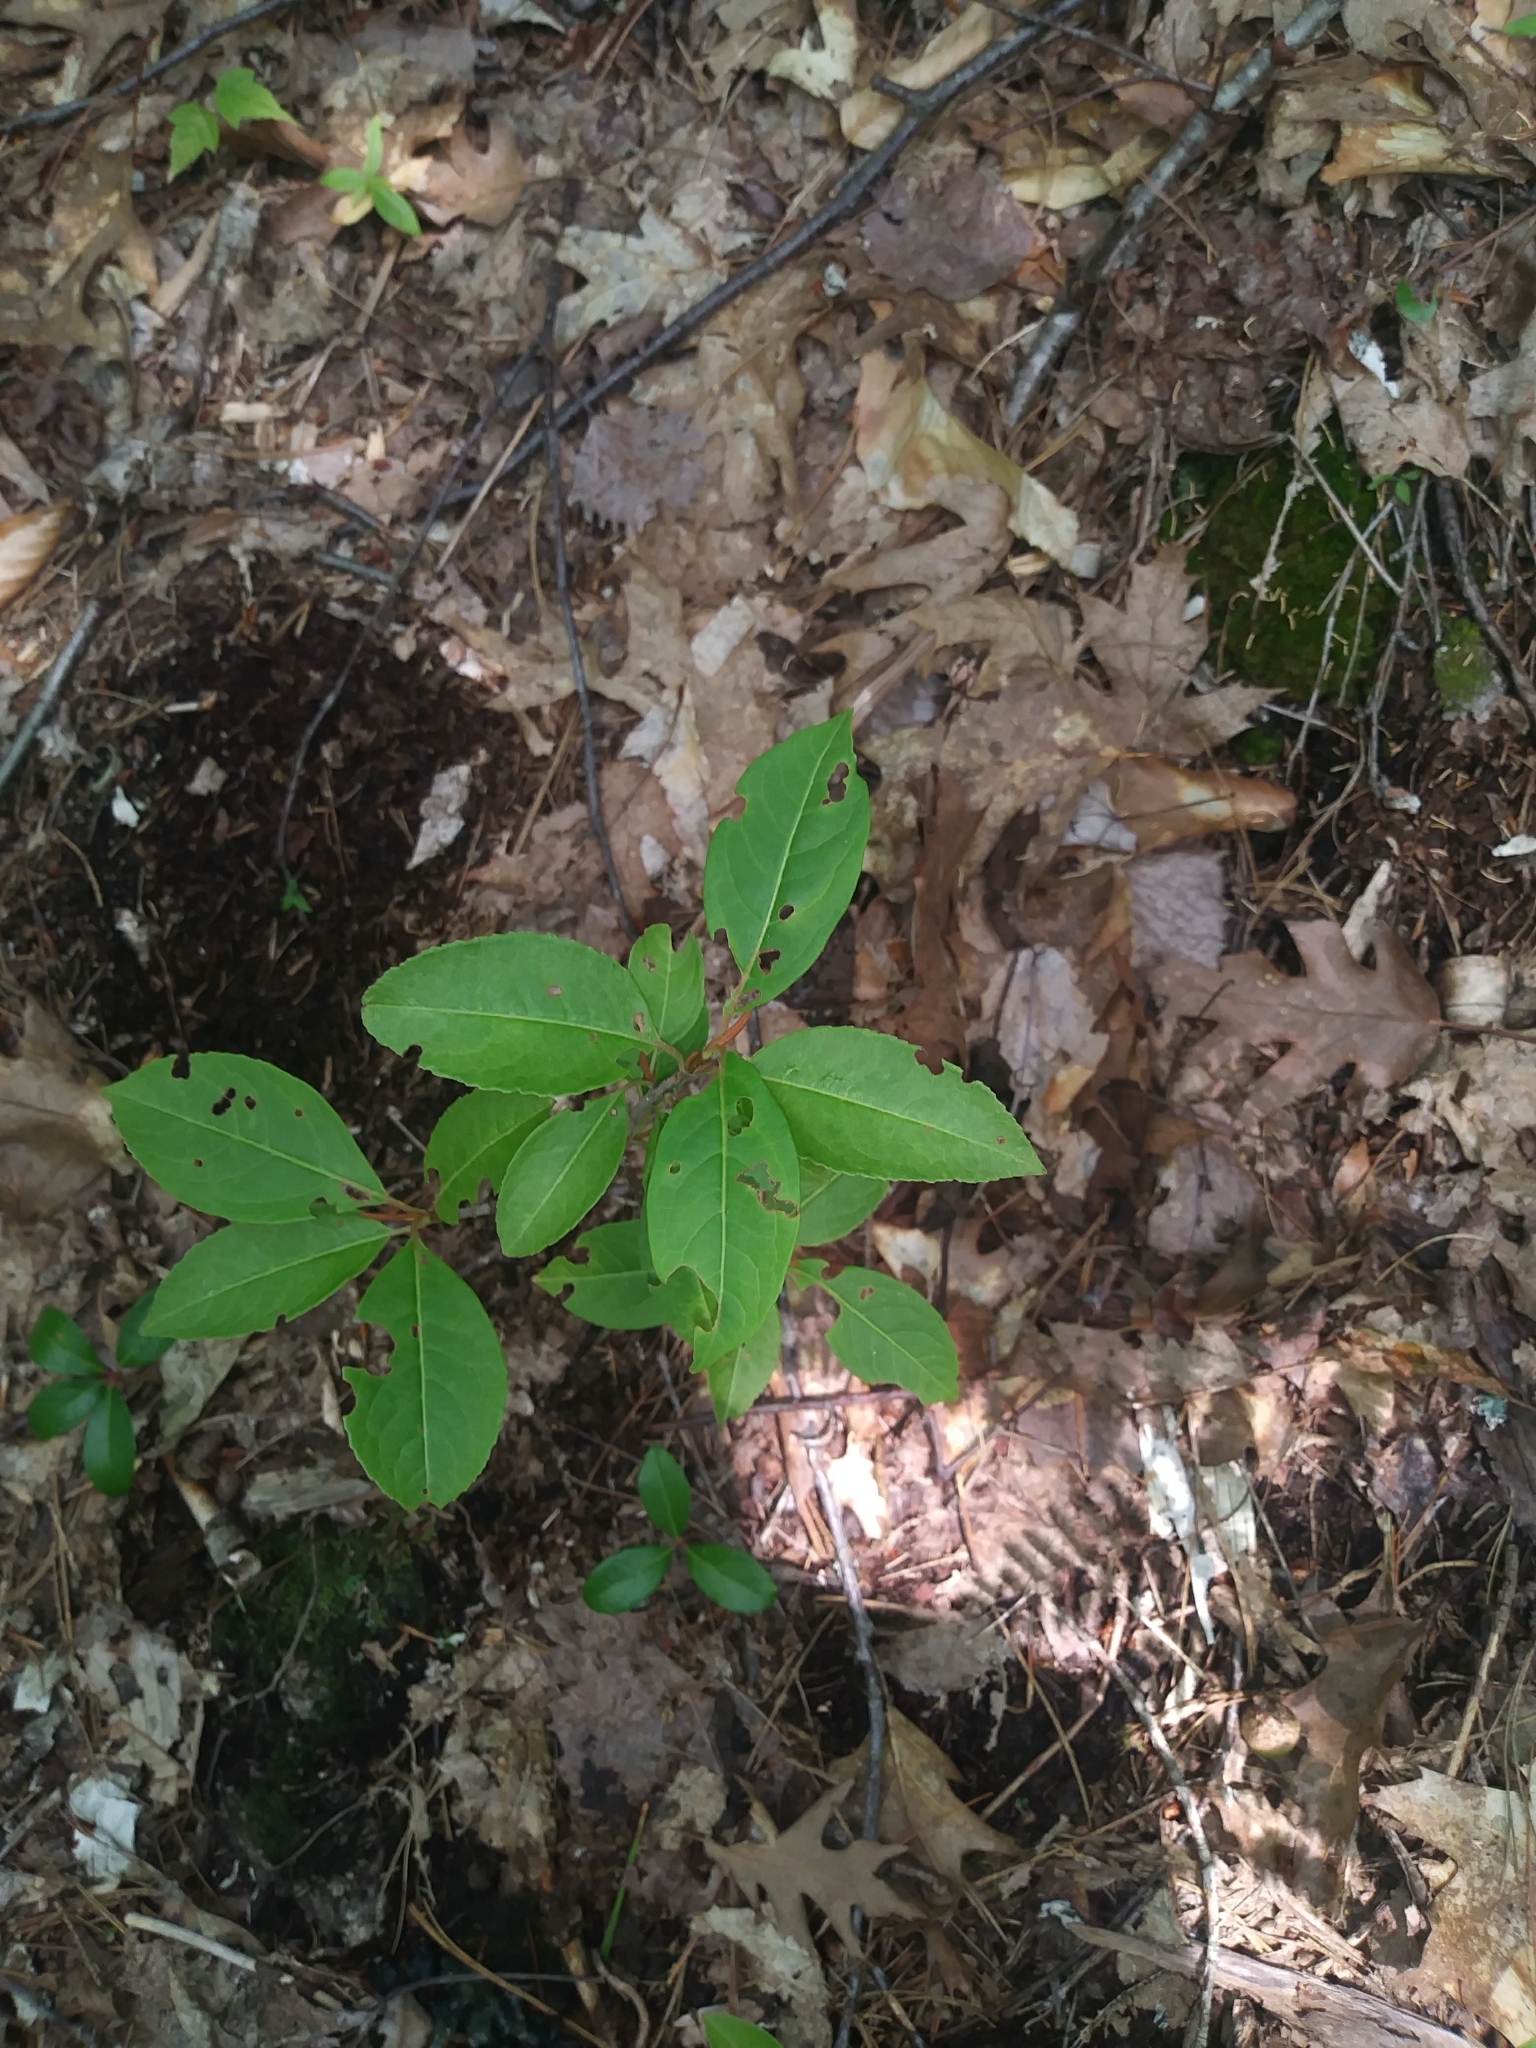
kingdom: Plantae
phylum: Tracheophyta
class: Magnoliopsida
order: Dipsacales
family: Viburnaceae
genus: Viburnum
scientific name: Viburnum cassinoides
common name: Swamp haw
